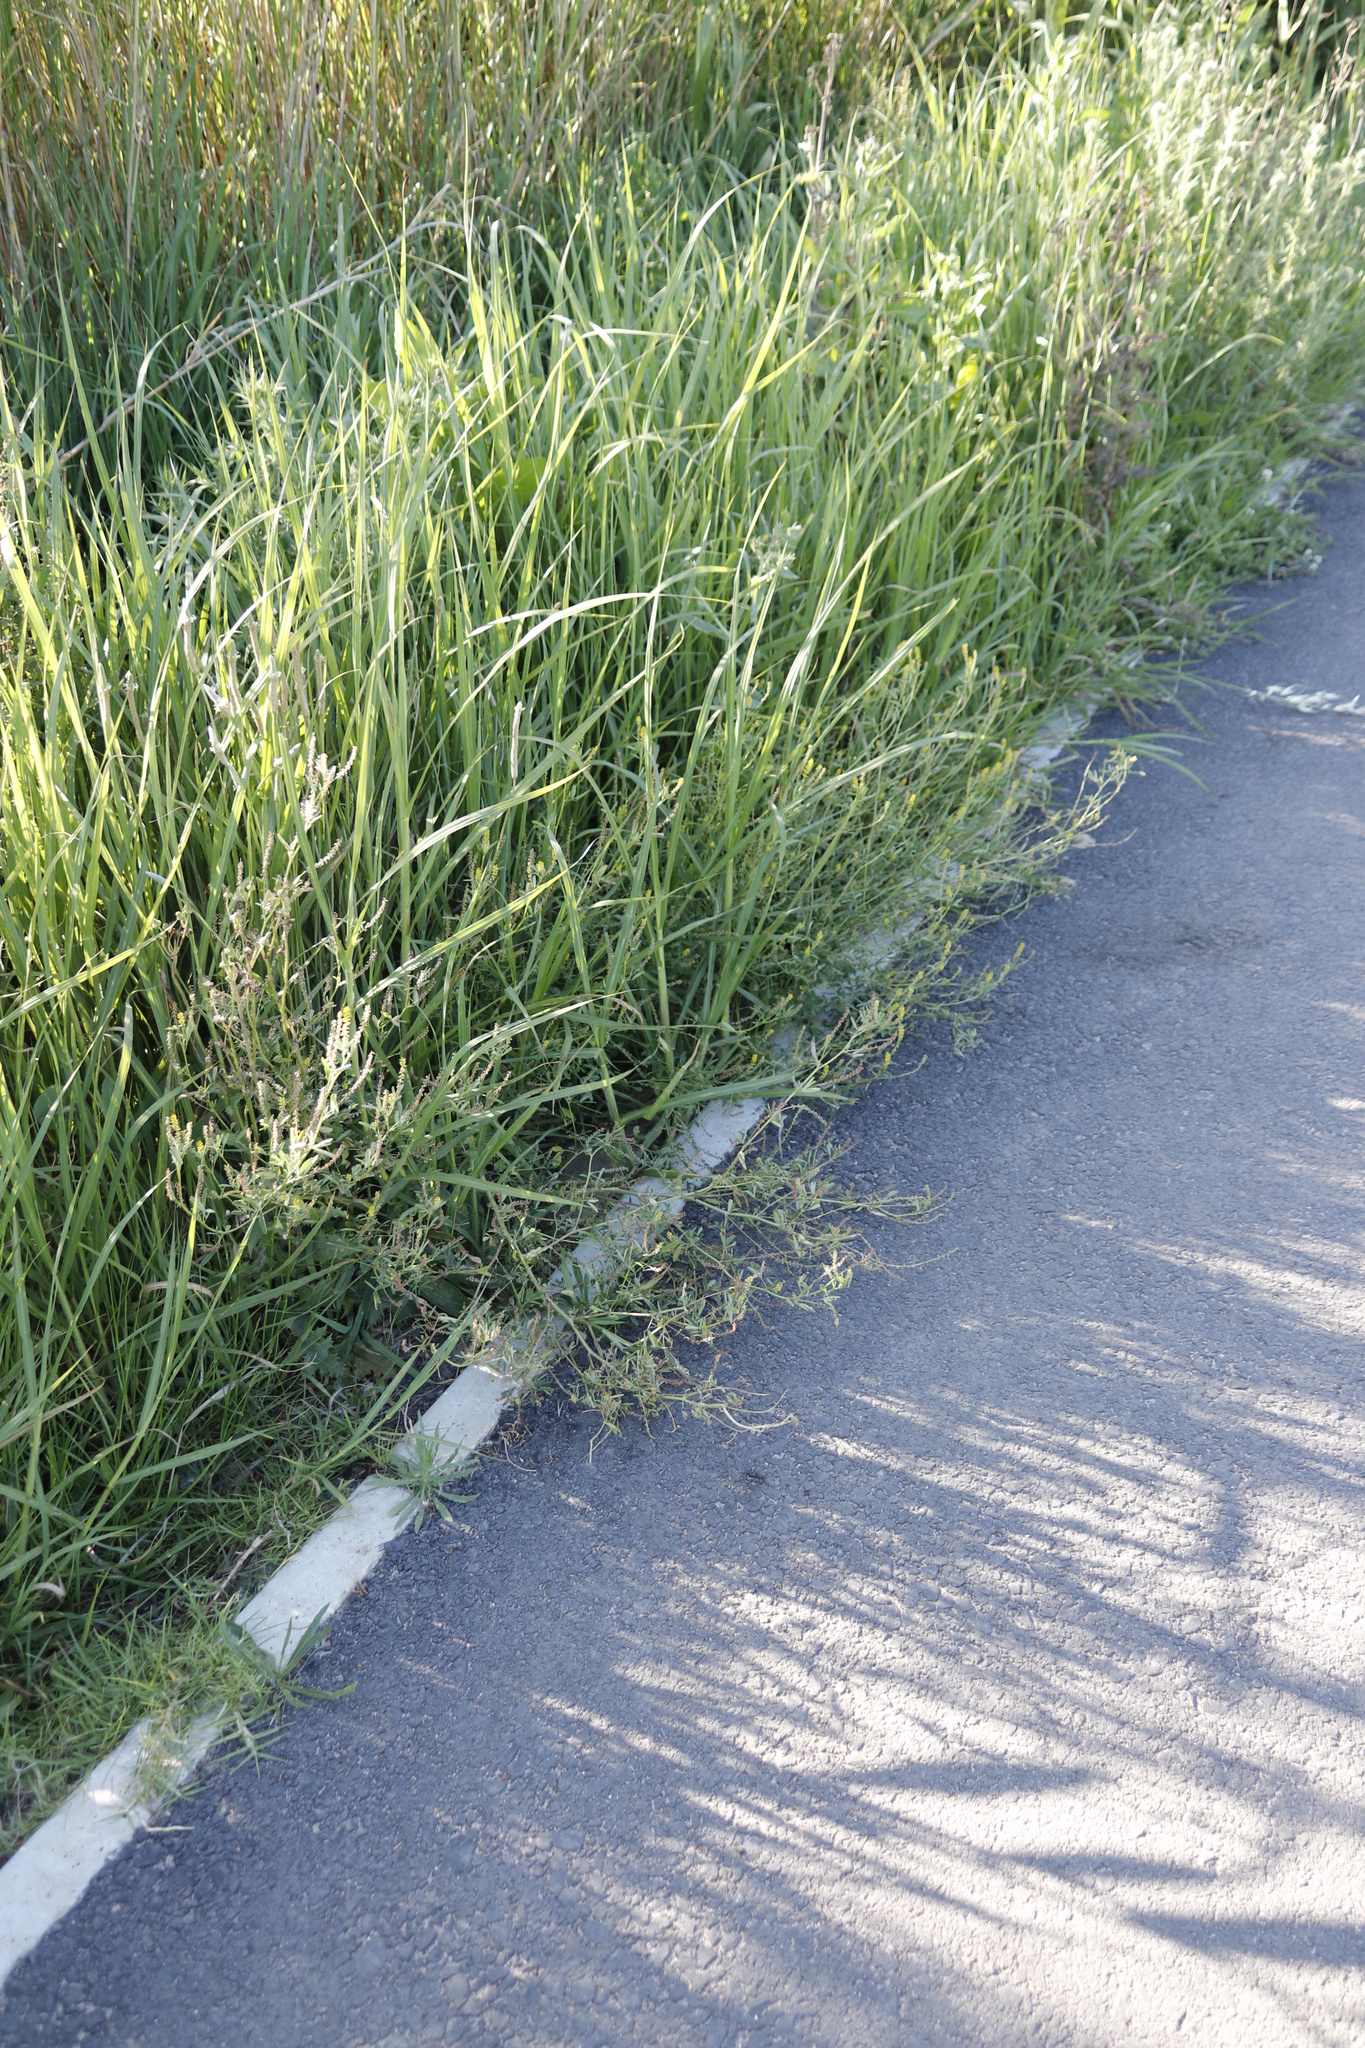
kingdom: Plantae
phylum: Tracheophyta
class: Magnoliopsida
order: Fabales
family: Fabaceae
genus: Melilotus
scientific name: Melilotus indicus
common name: Small melilot
